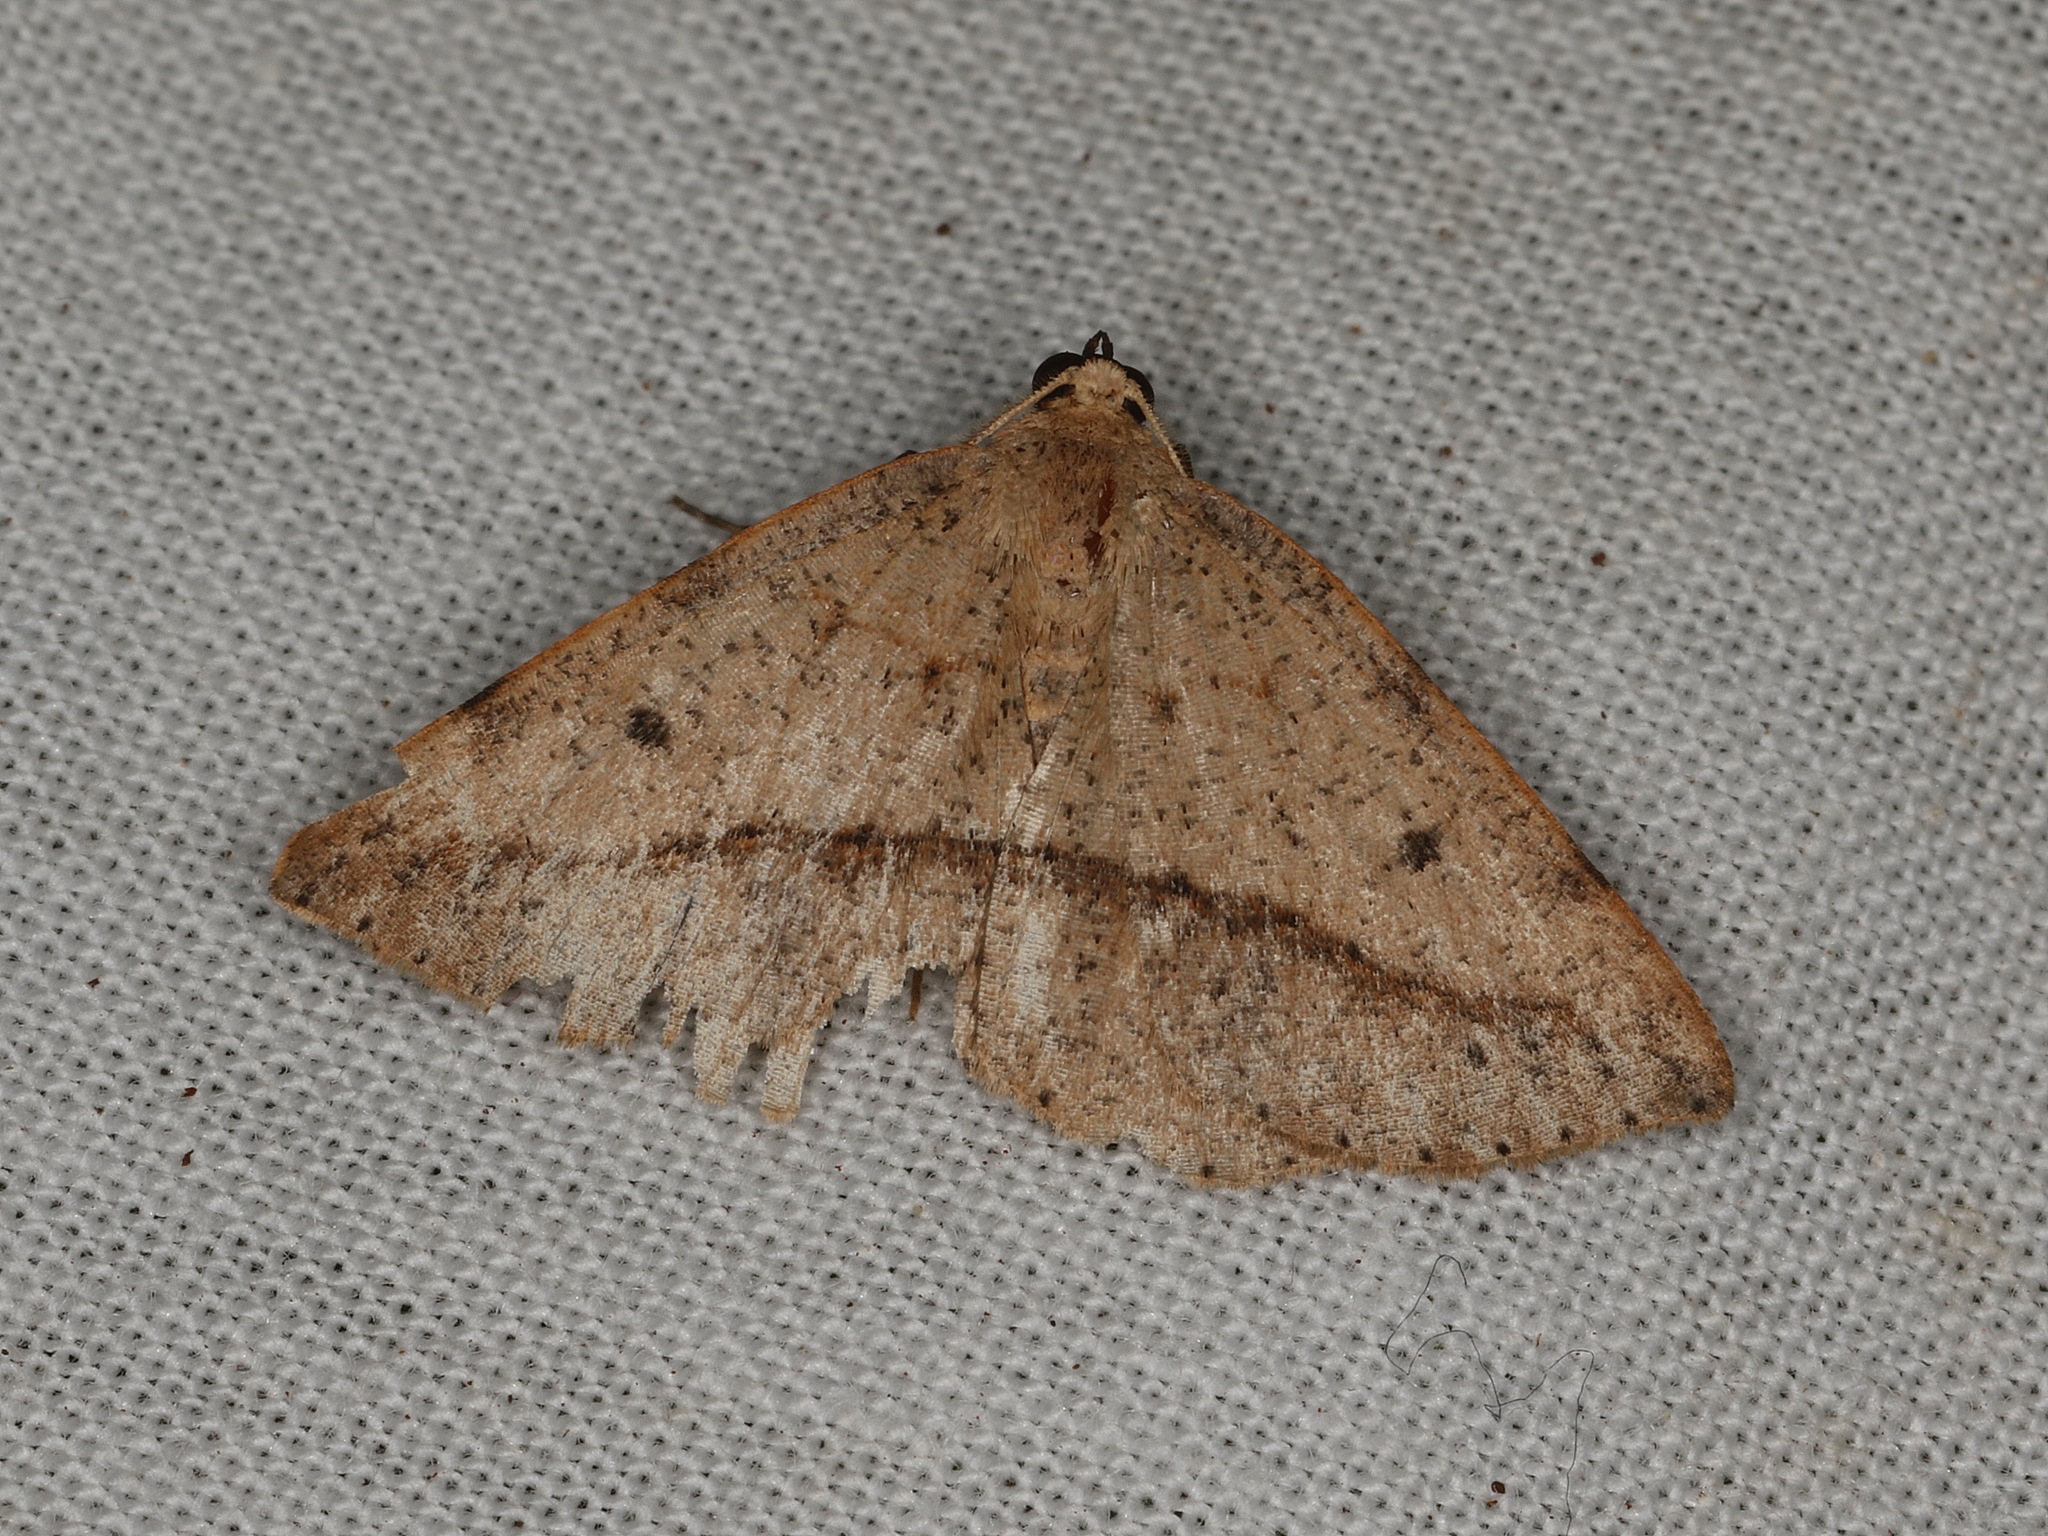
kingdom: Animalia
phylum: Arthropoda
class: Insecta
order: Lepidoptera
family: Geometridae
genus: Taxeotis
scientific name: Taxeotis epigaea
